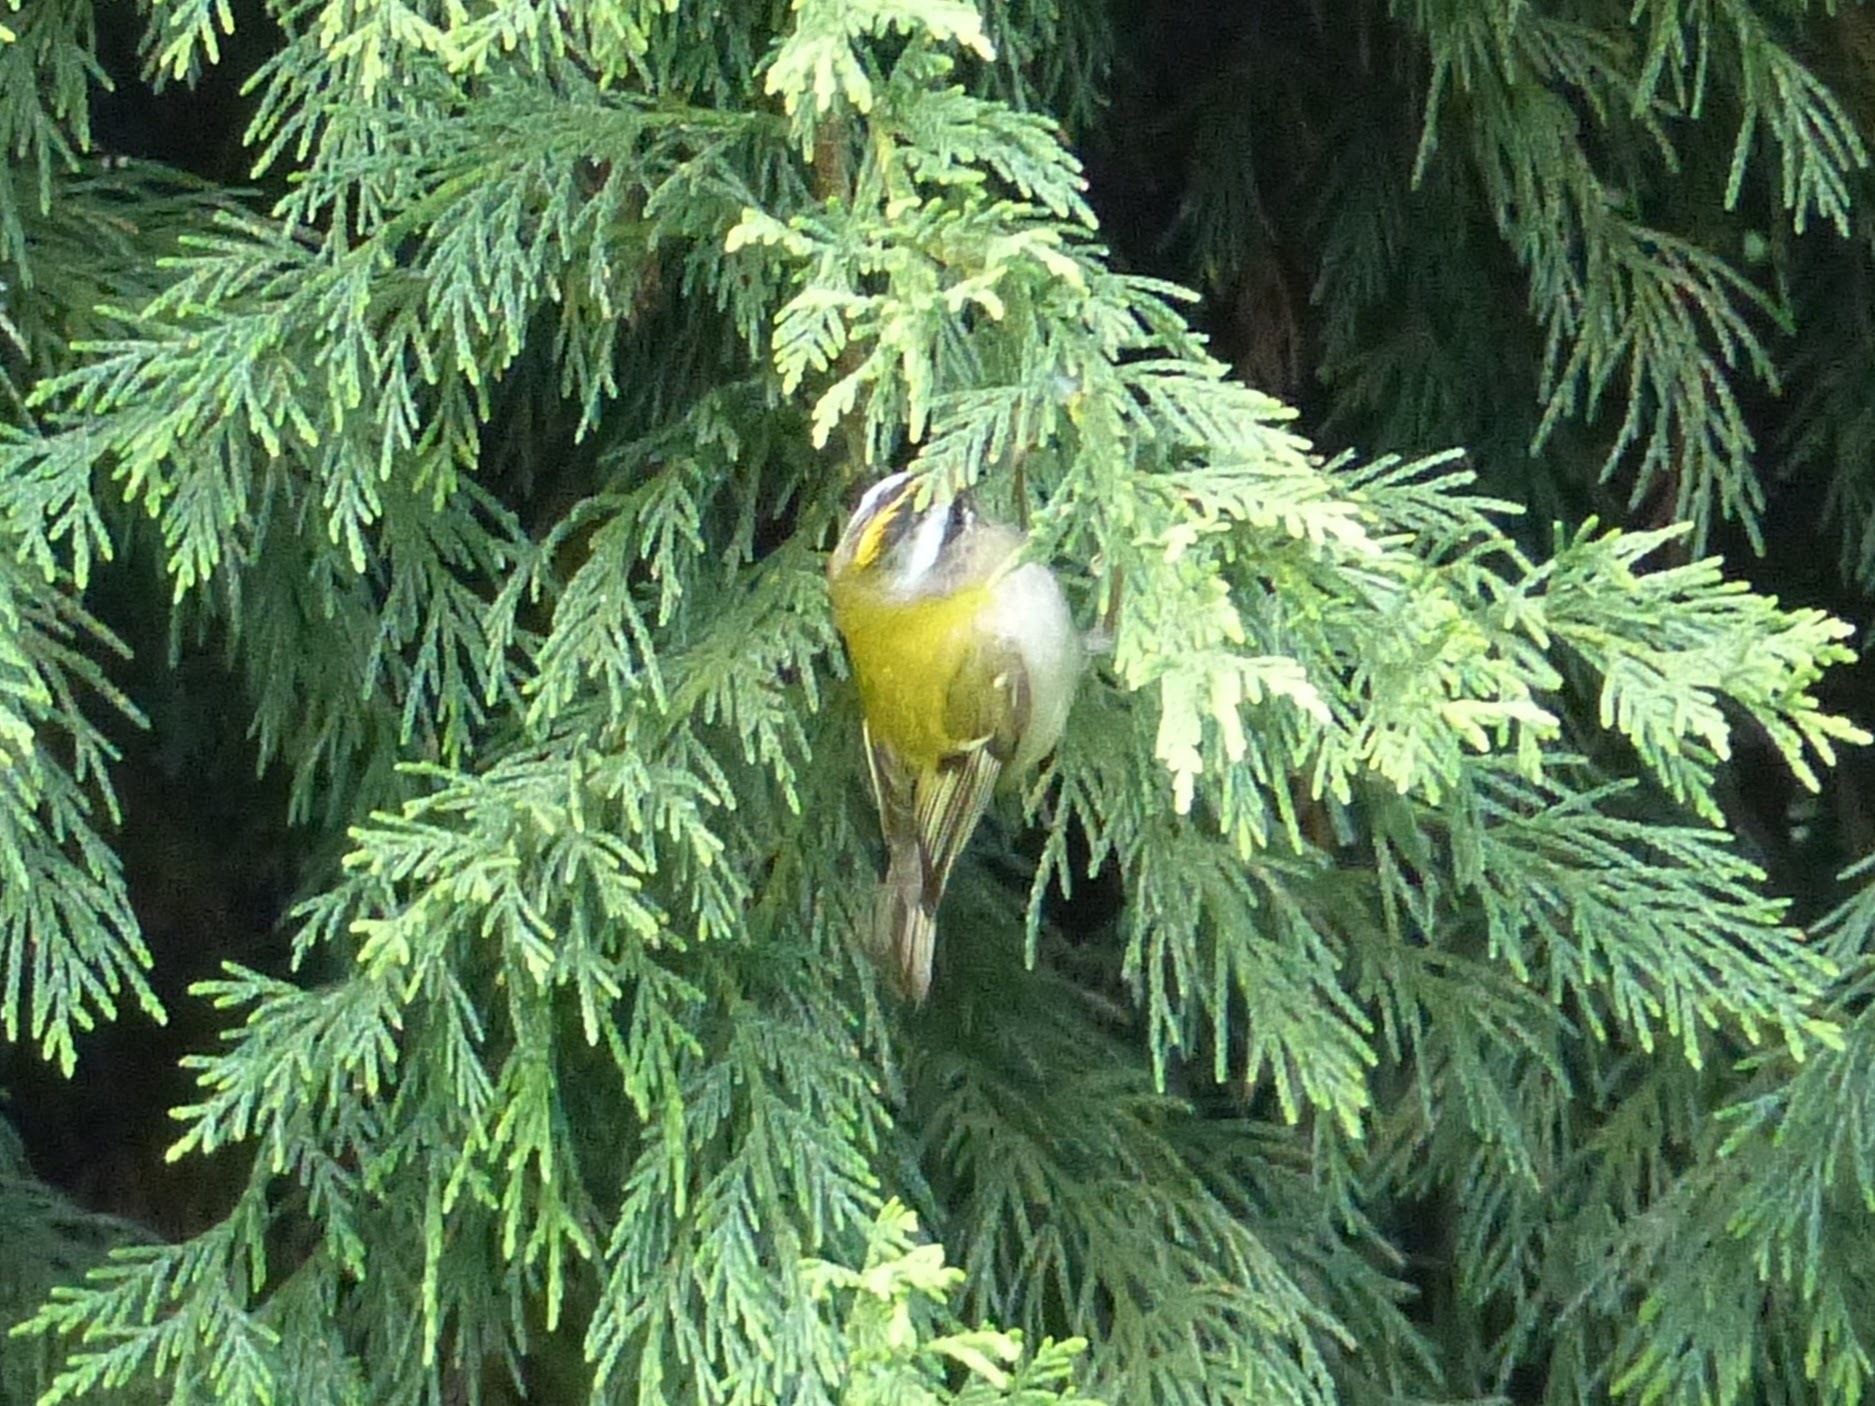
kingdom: Animalia
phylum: Chordata
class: Aves
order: Passeriformes
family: Regulidae
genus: Regulus
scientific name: Regulus ignicapilla
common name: Firecrest
